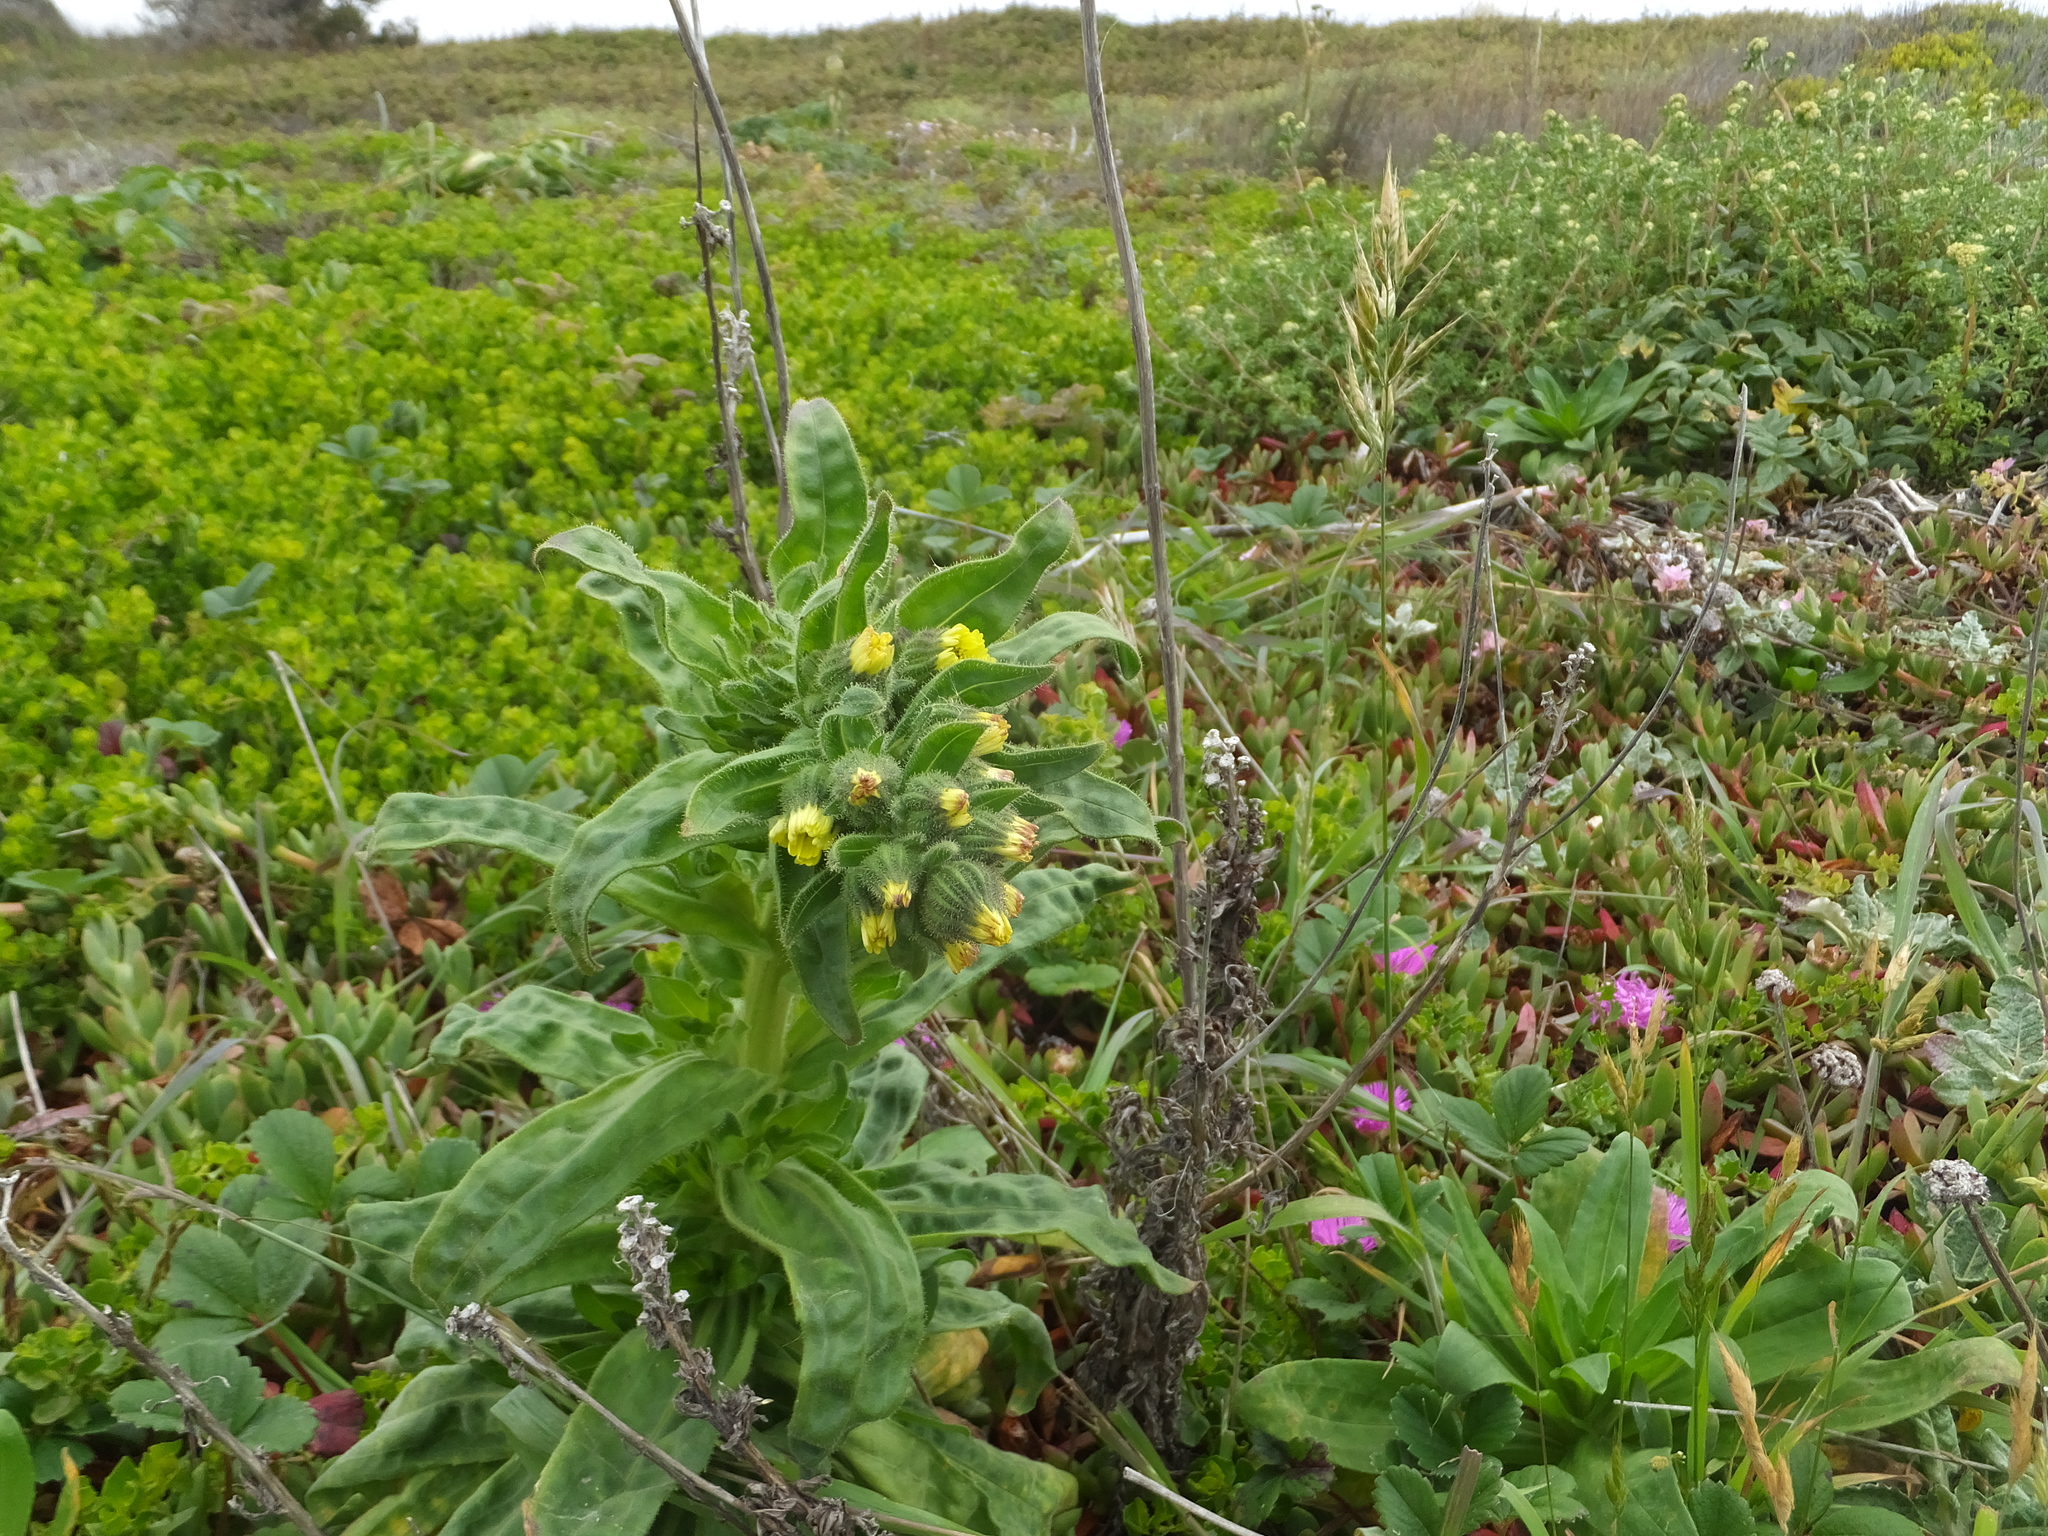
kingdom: Plantae
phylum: Tracheophyta
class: Magnoliopsida
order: Asterales
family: Asteraceae
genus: Madia
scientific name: Madia sativa
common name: Coast tarweed
